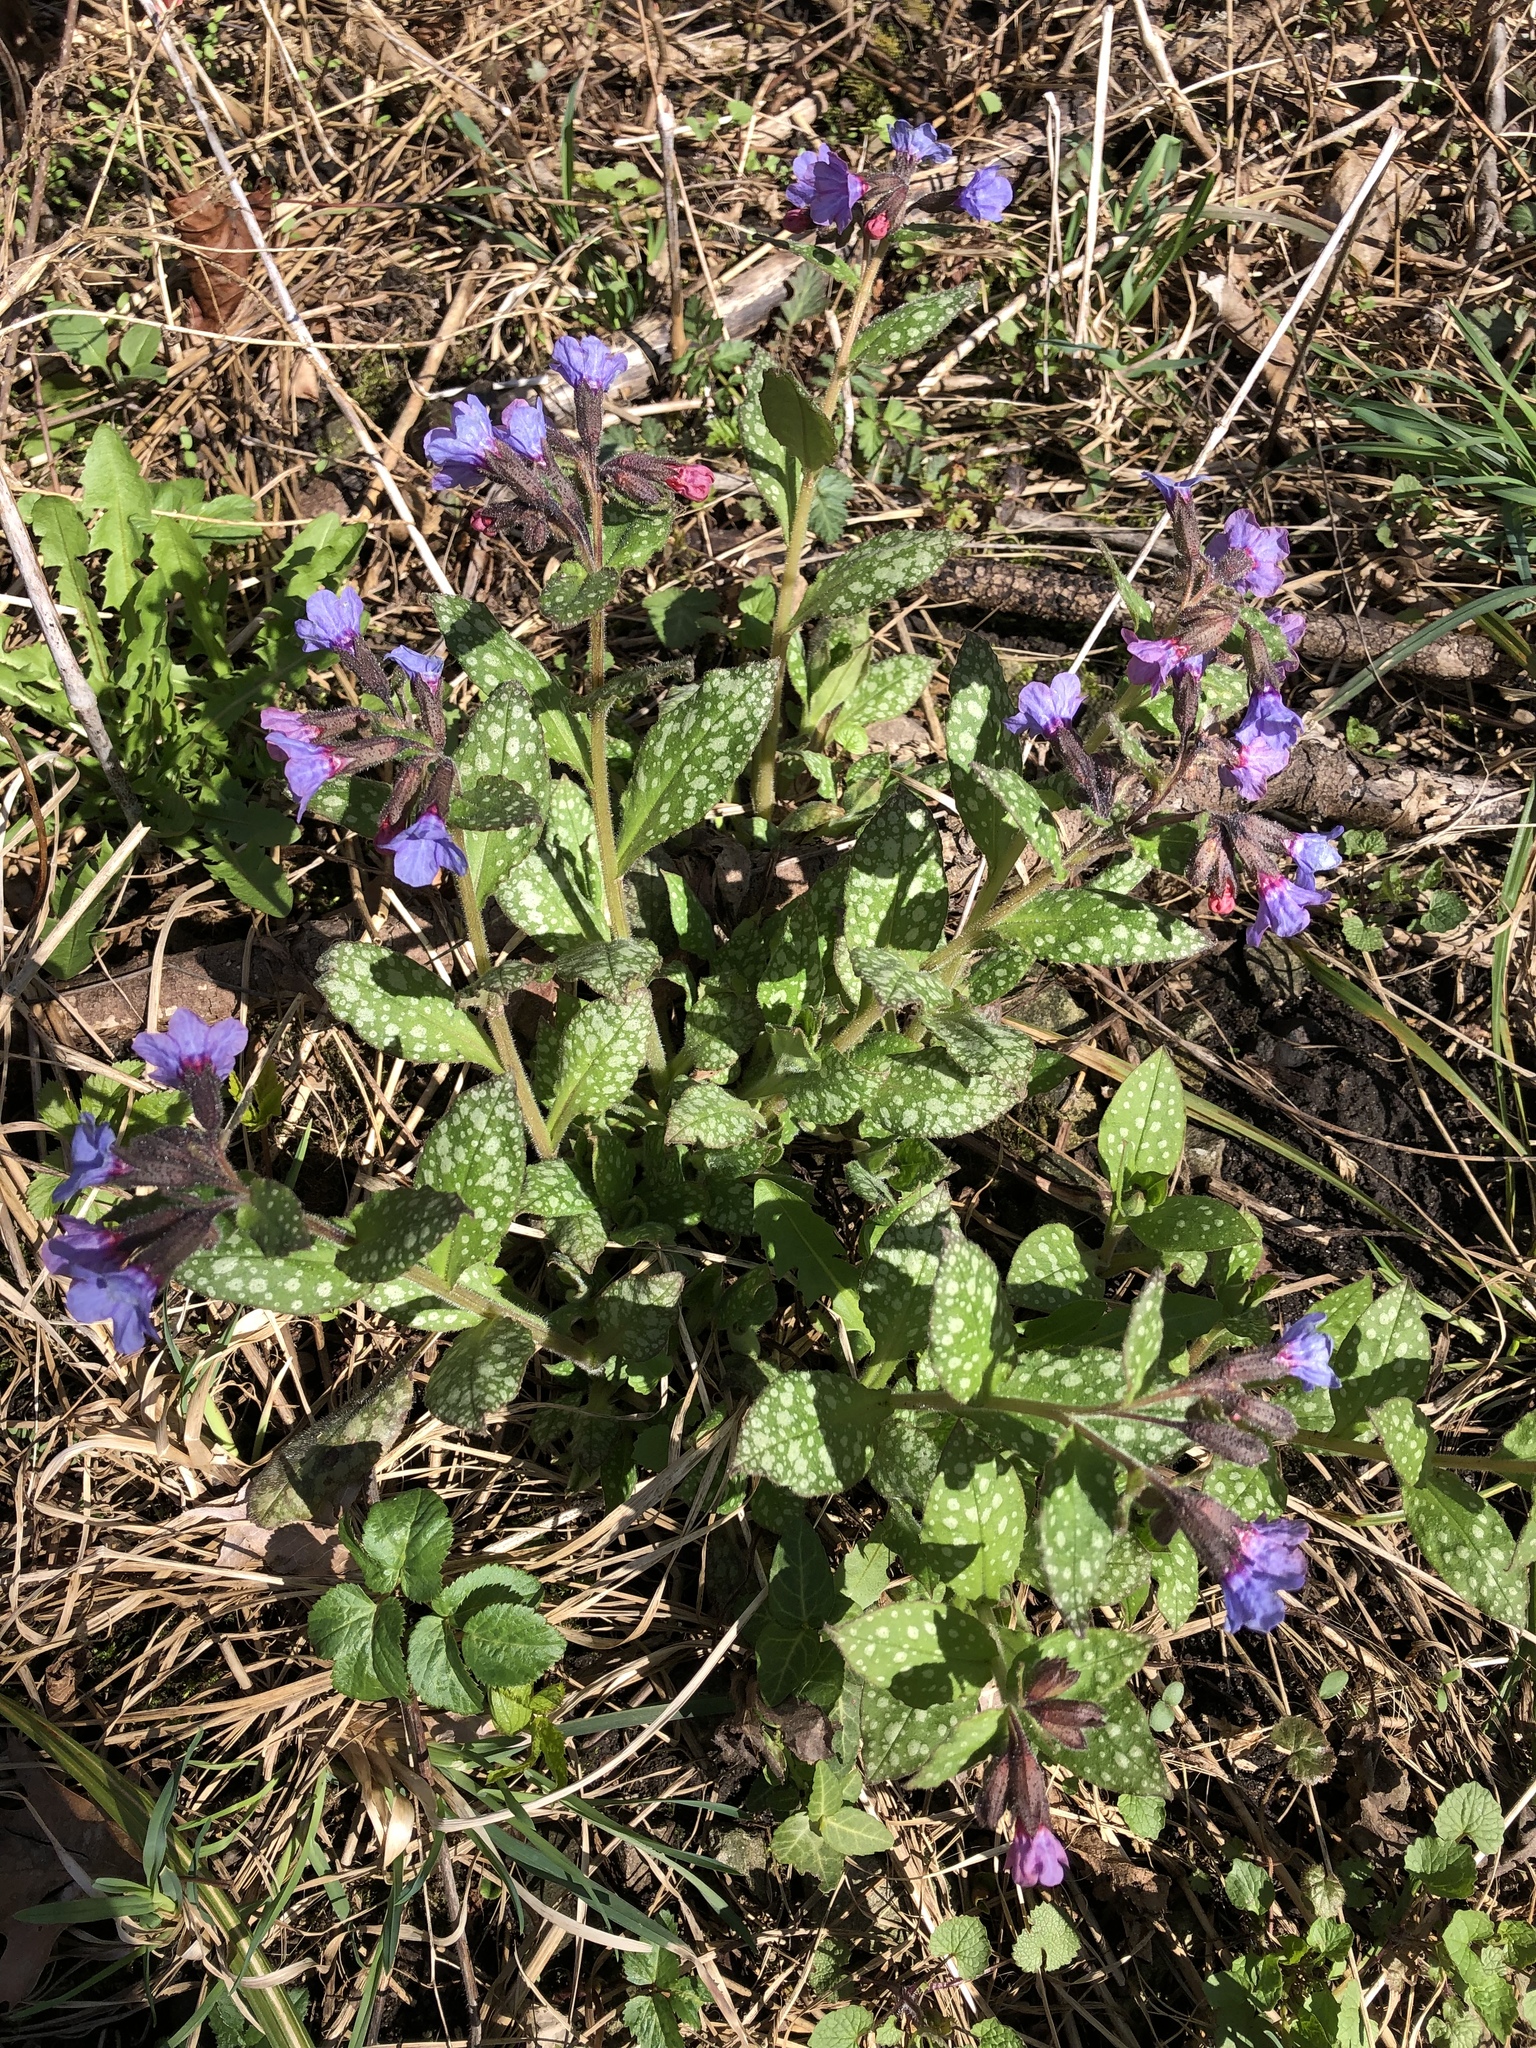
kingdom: Plantae
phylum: Tracheophyta
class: Magnoliopsida
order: Boraginales
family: Boraginaceae
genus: Pulmonaria
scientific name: Pulmonaria officinalis
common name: Lungwort
